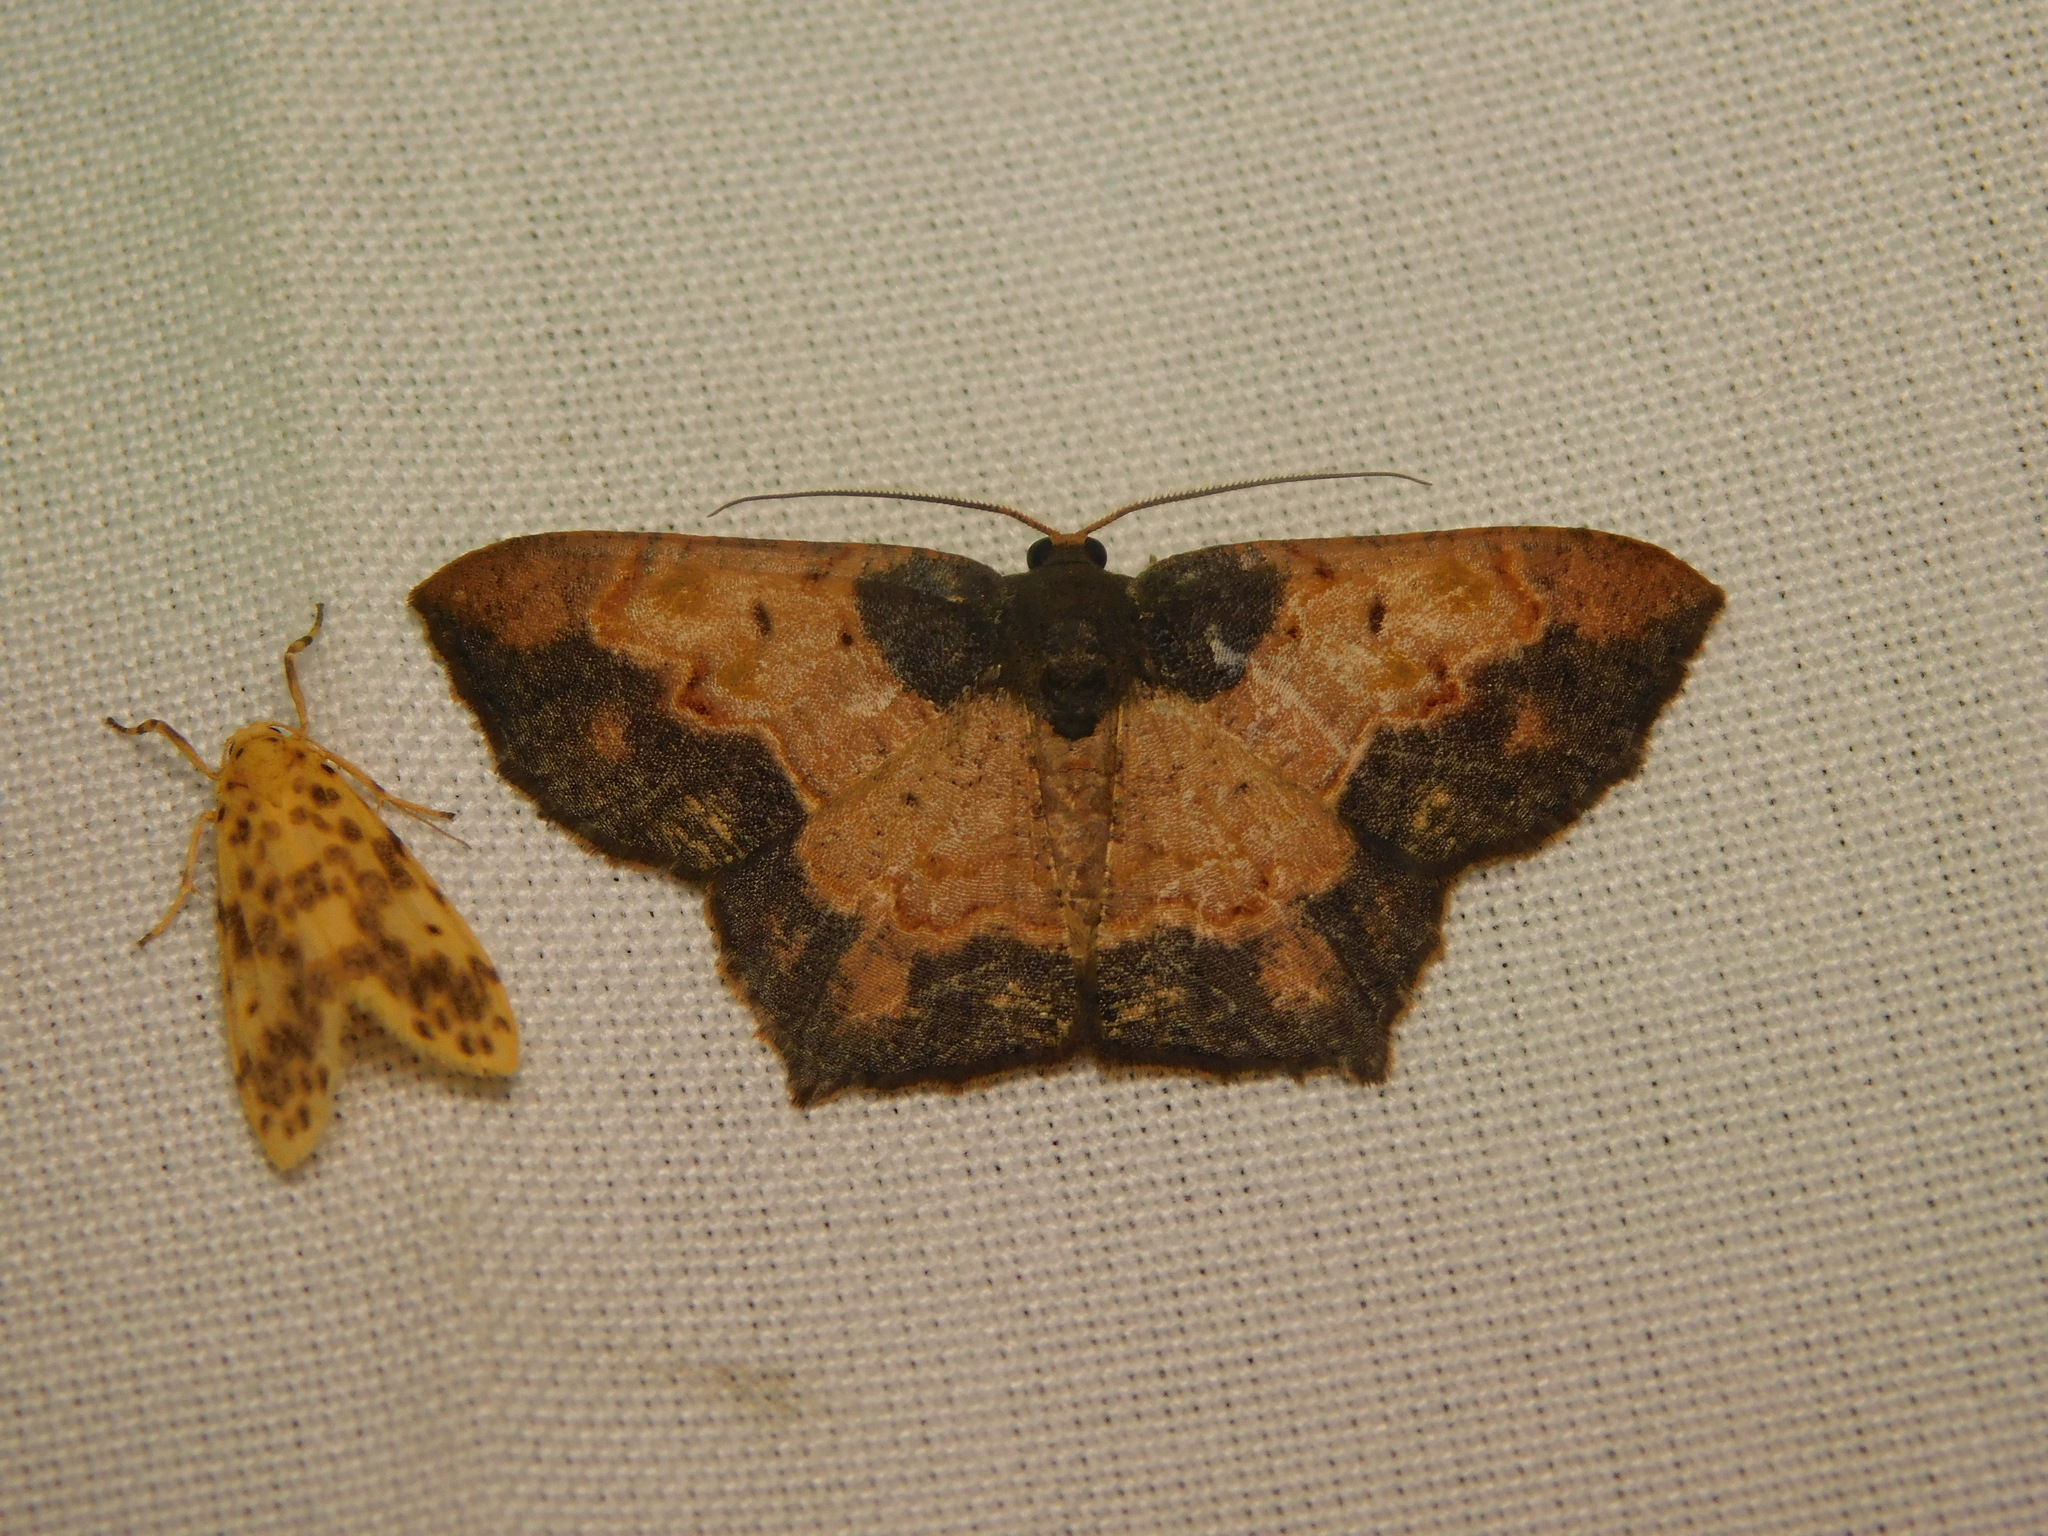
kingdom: Animalia
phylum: Arthropoda
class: Insecta
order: Lepidoptera
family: Geometridae
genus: Serratophyga
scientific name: Serratophyga subangulata
